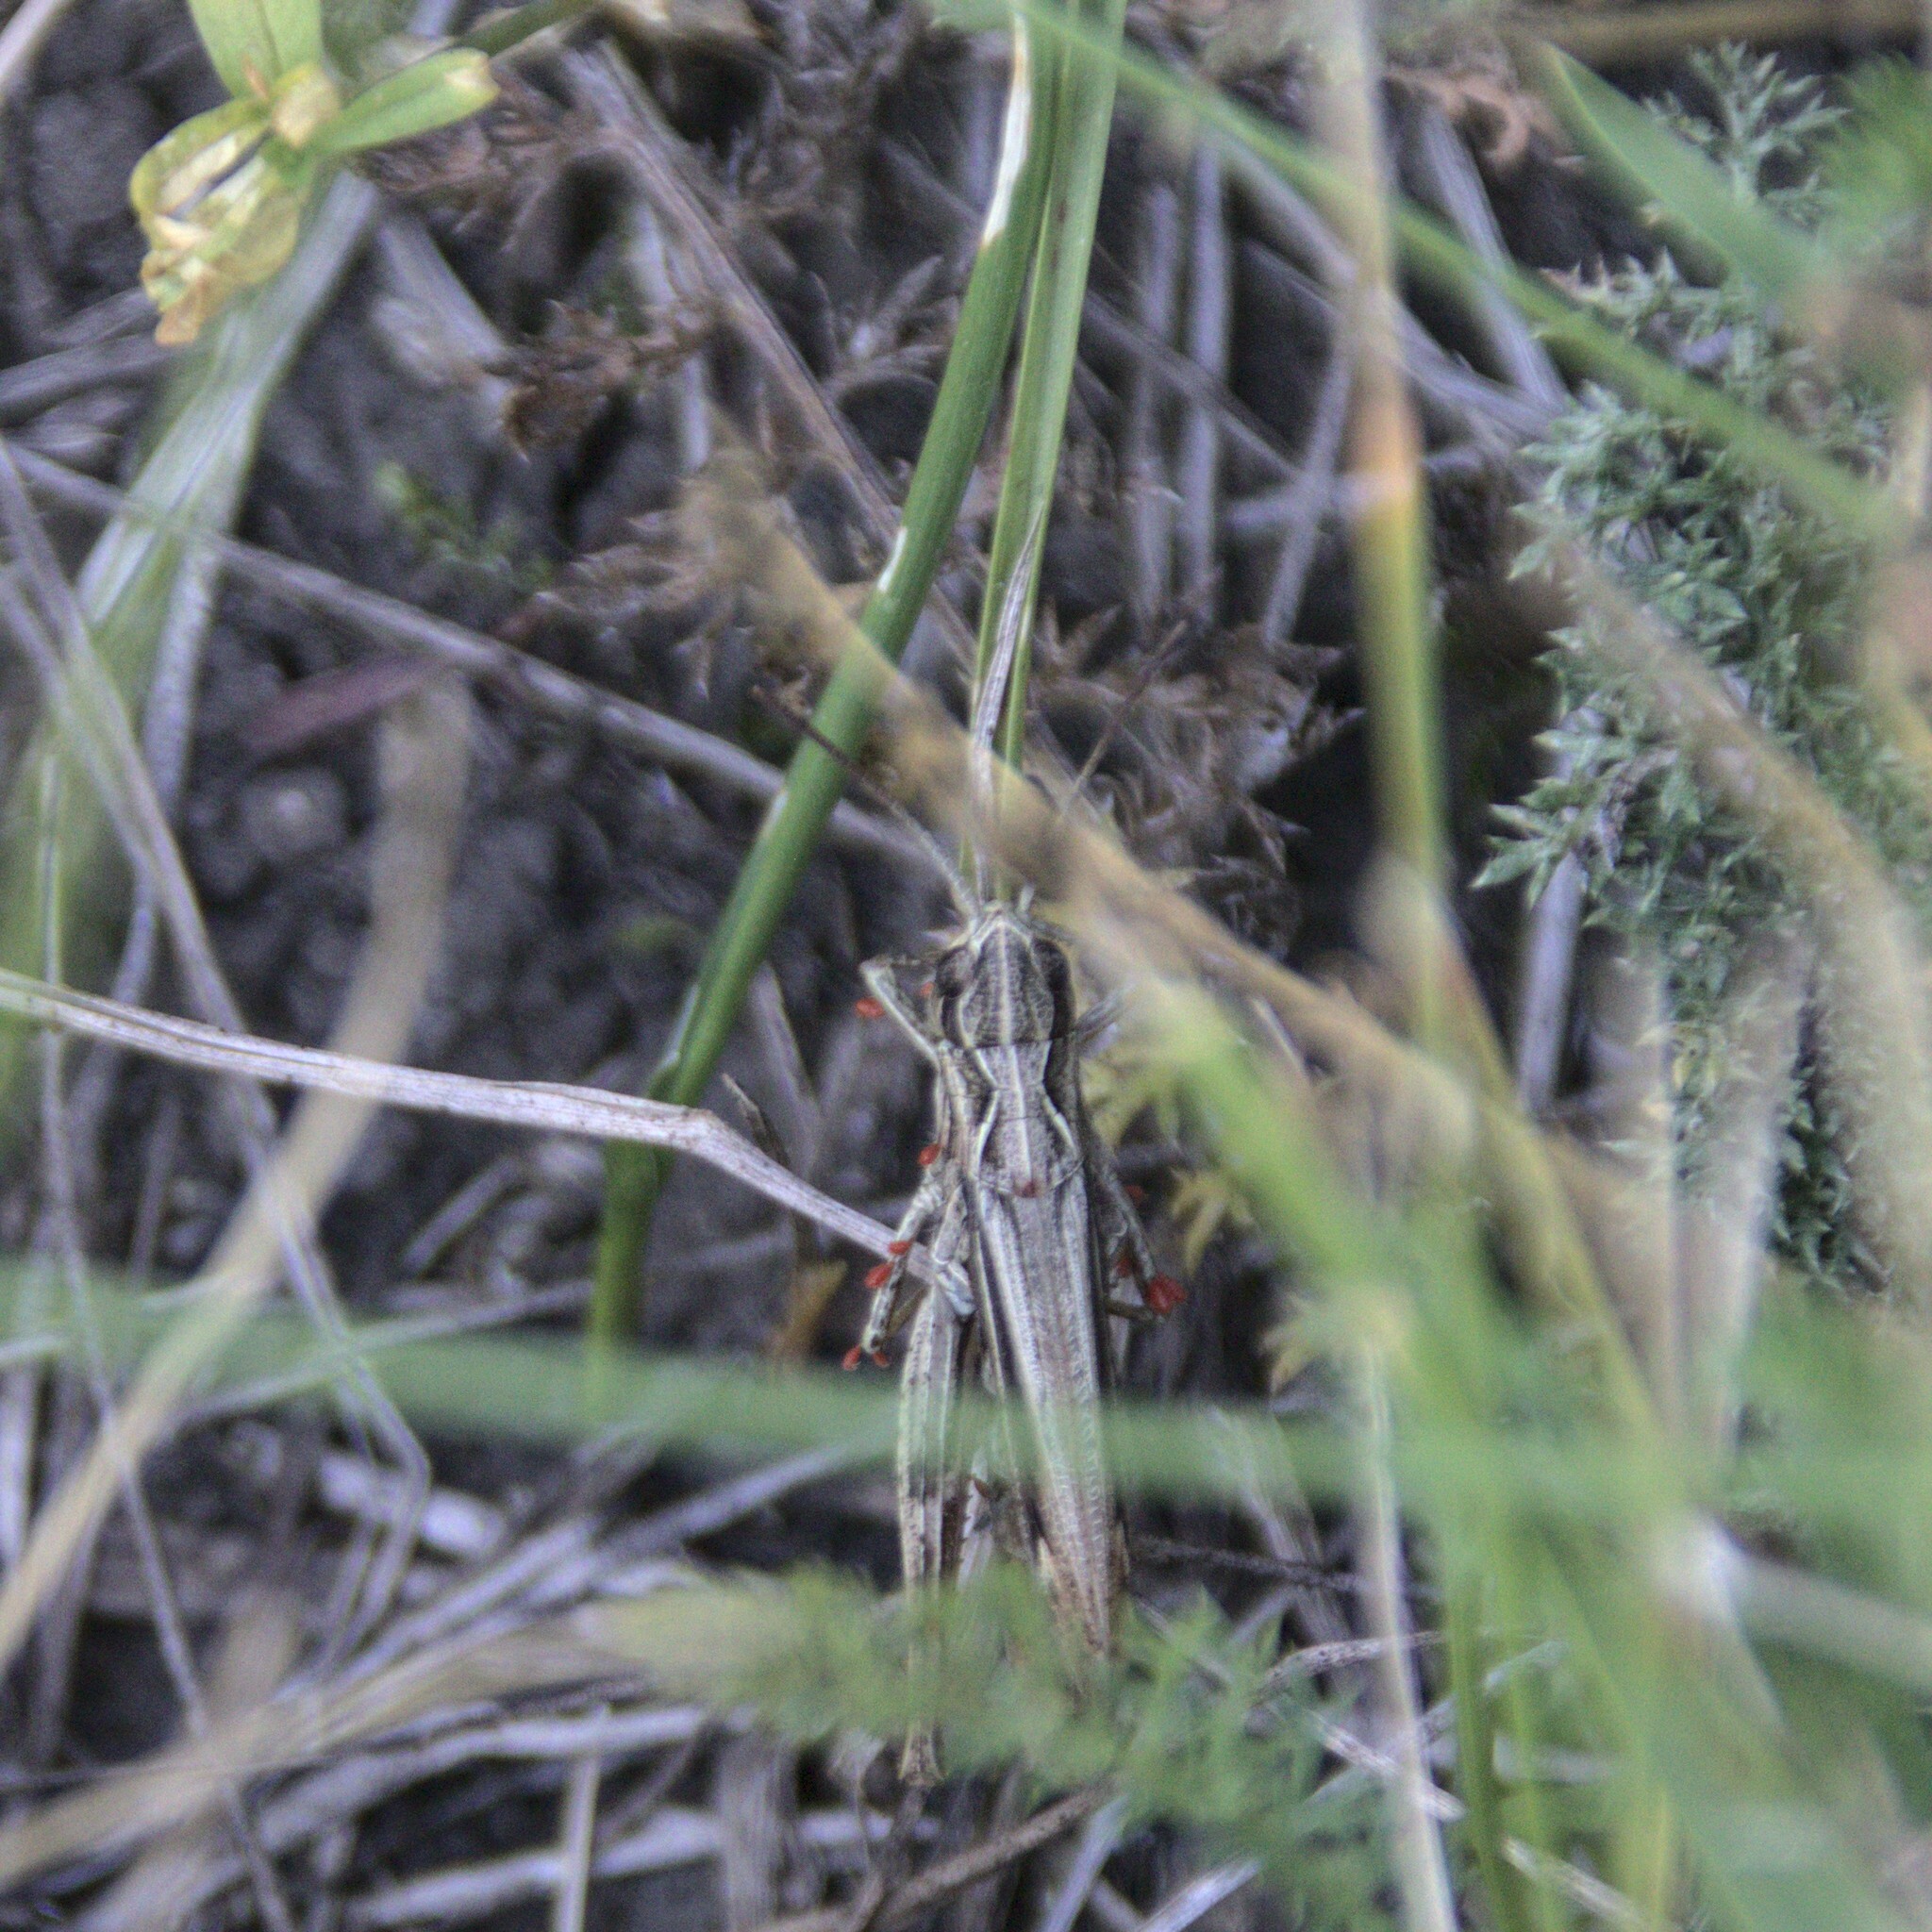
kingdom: Animalia
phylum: Arthropoda
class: Insecta
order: Orthoptera
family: Acrididae
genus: Chorthippus
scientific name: Chorthippus apricarius
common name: Upland field grasshopper
